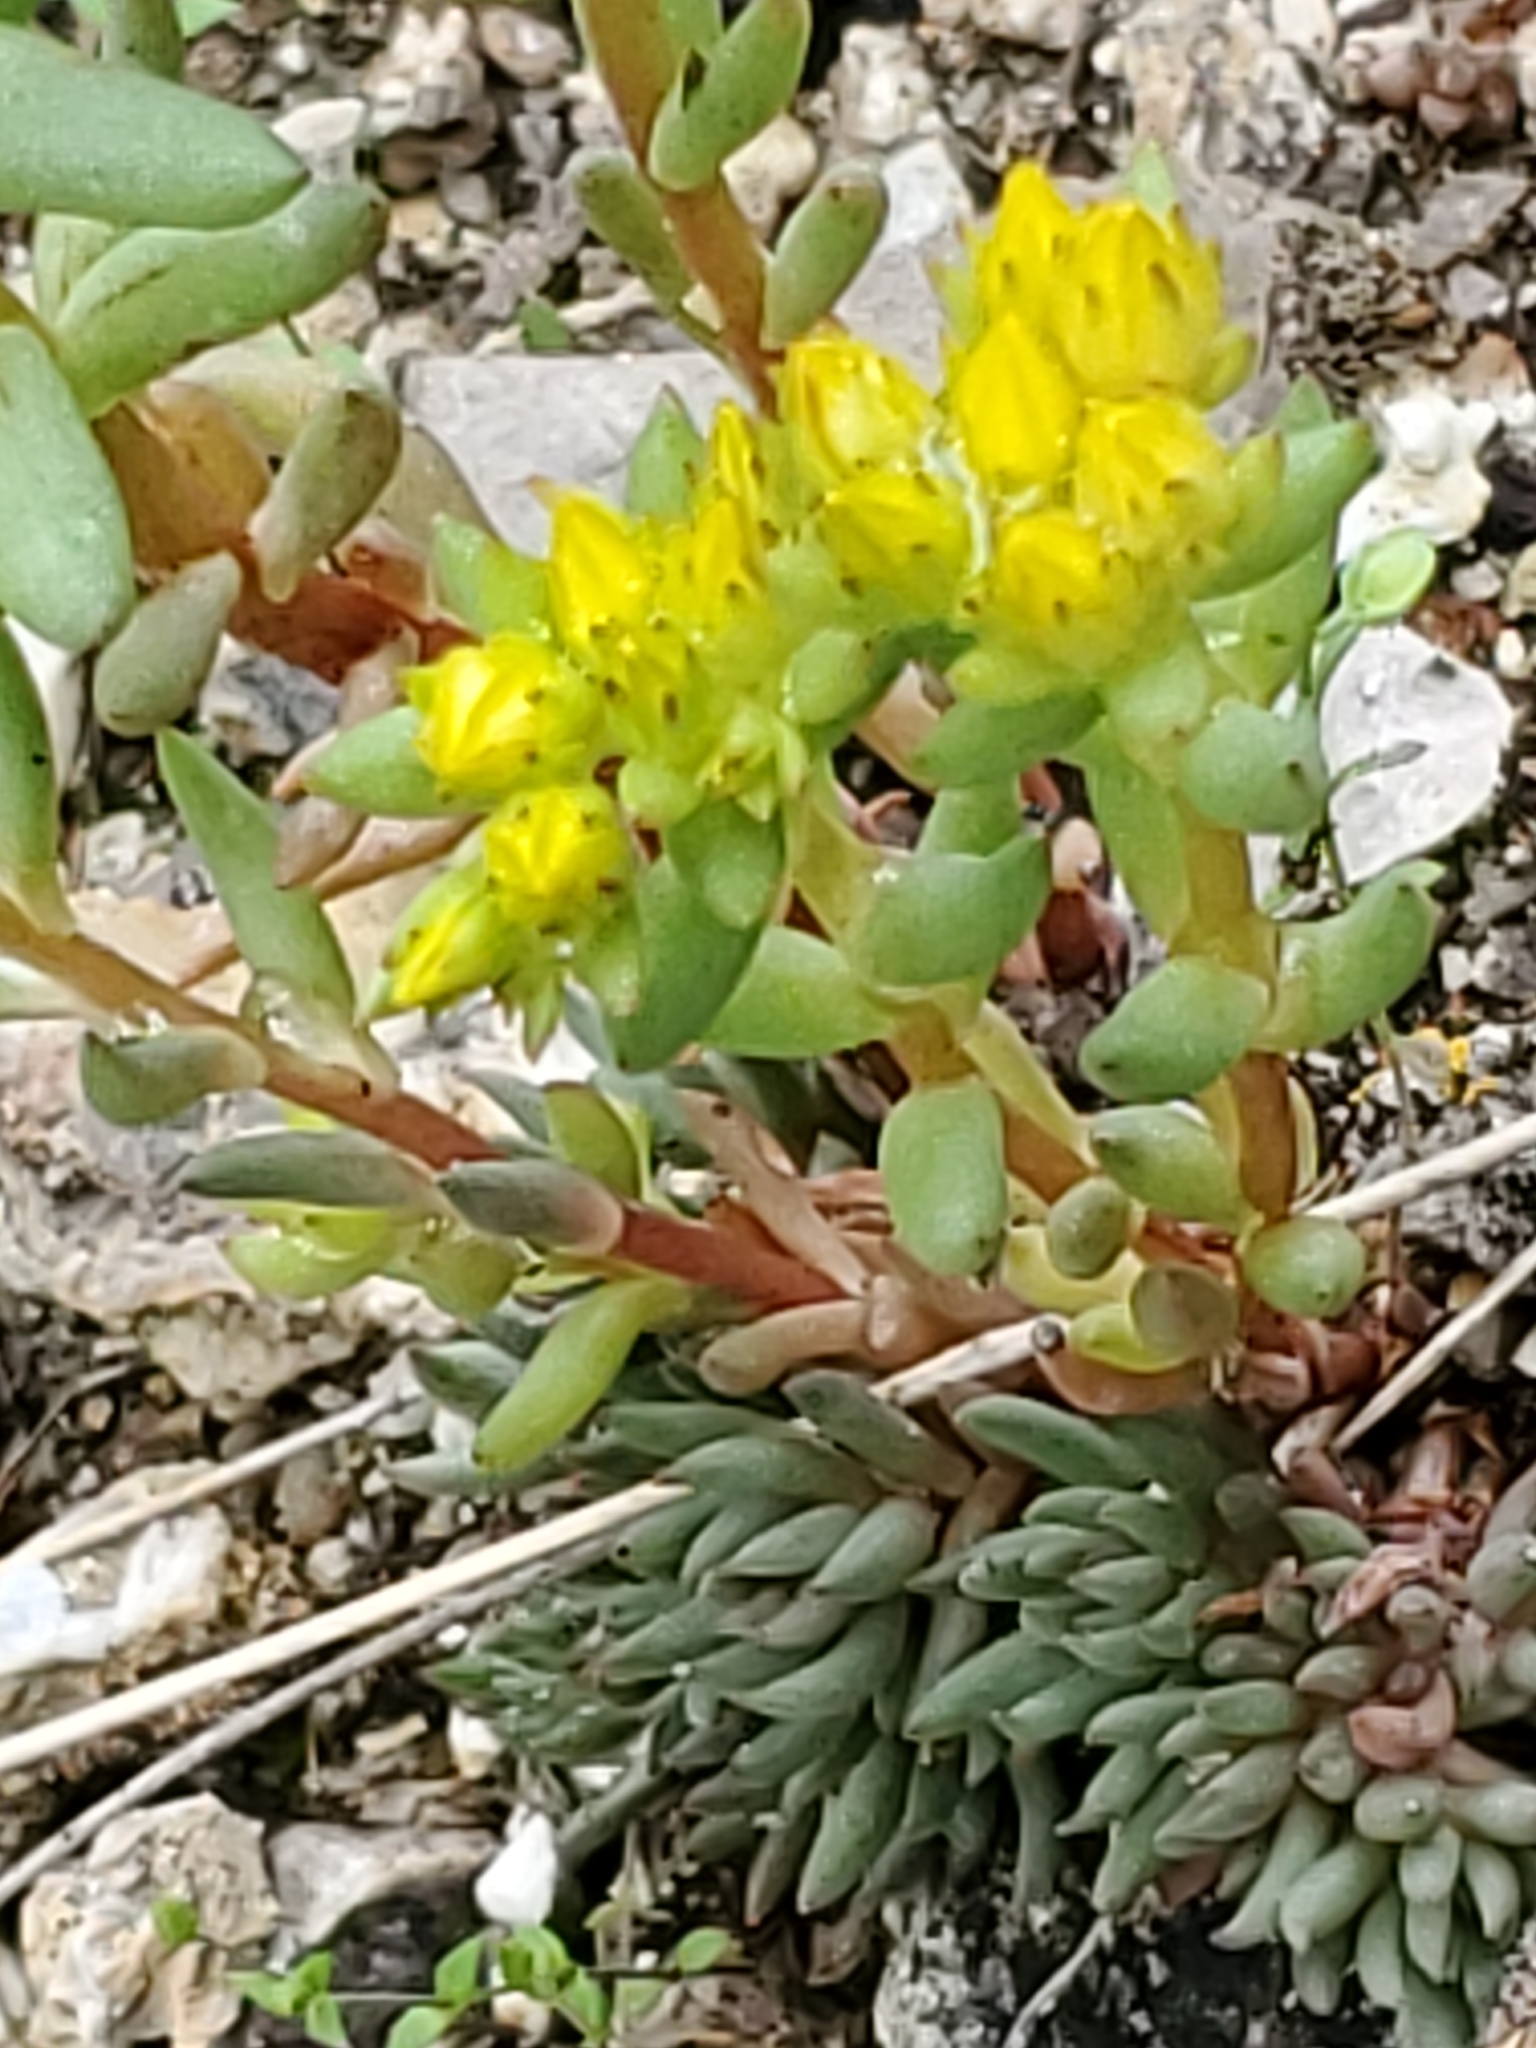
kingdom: Plantae
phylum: Tracheophyta
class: Magnoliopsida
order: Saxifragales
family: Crassulaceae
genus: Sedum
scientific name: Sedum lanceolatum
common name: Common stonecrop
